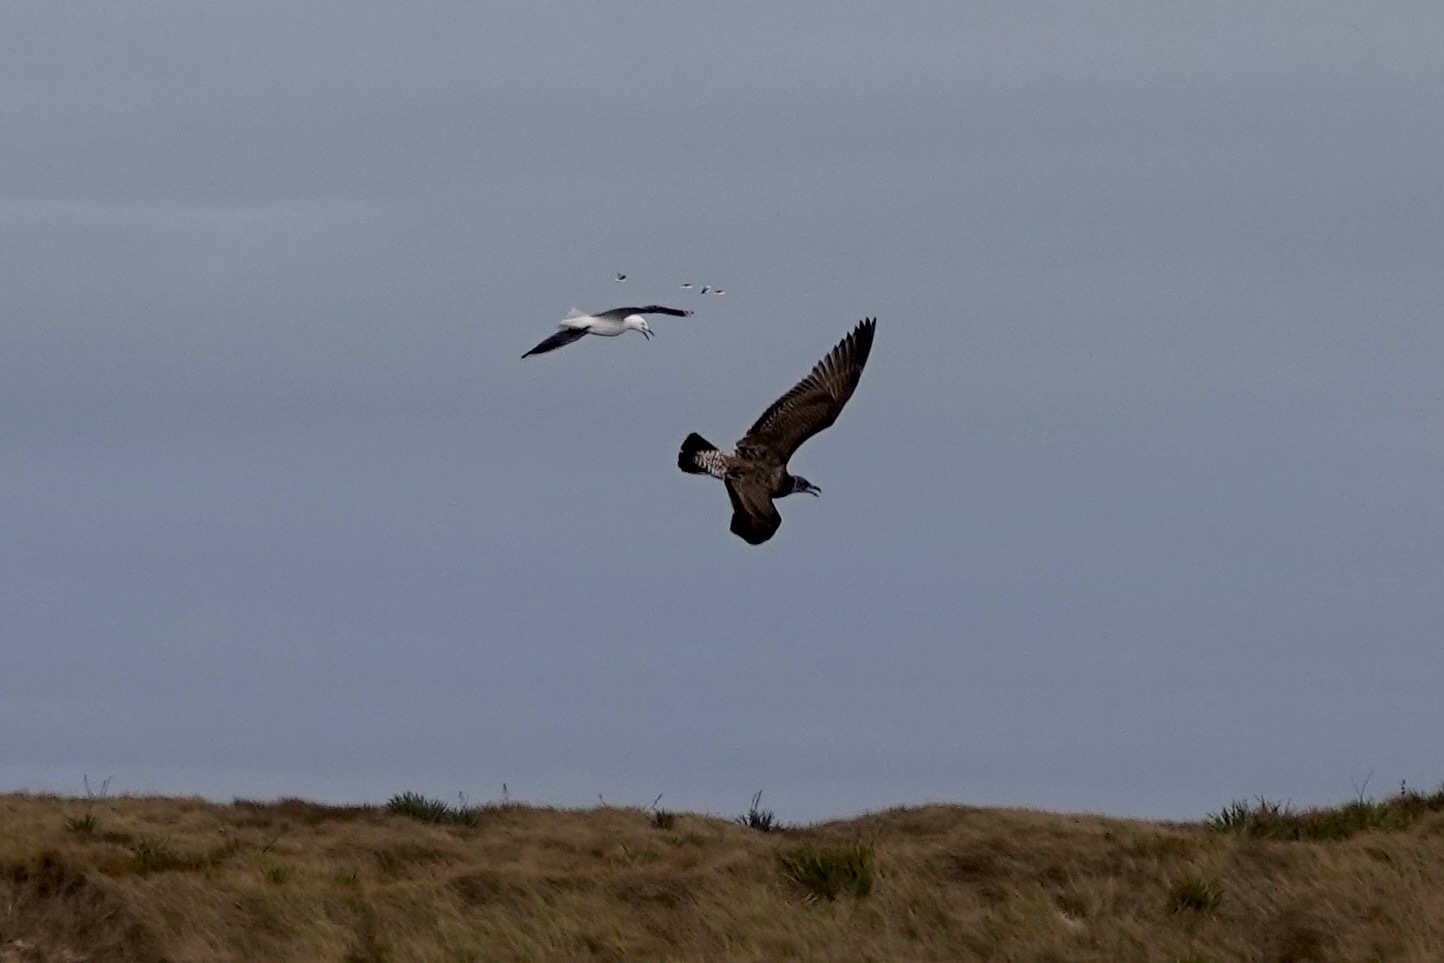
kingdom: Animalia
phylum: Chordata
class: Aves
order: Charadriiformes
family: Laridae
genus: Larus
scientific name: Larus dominicanus
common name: Kelp gull
